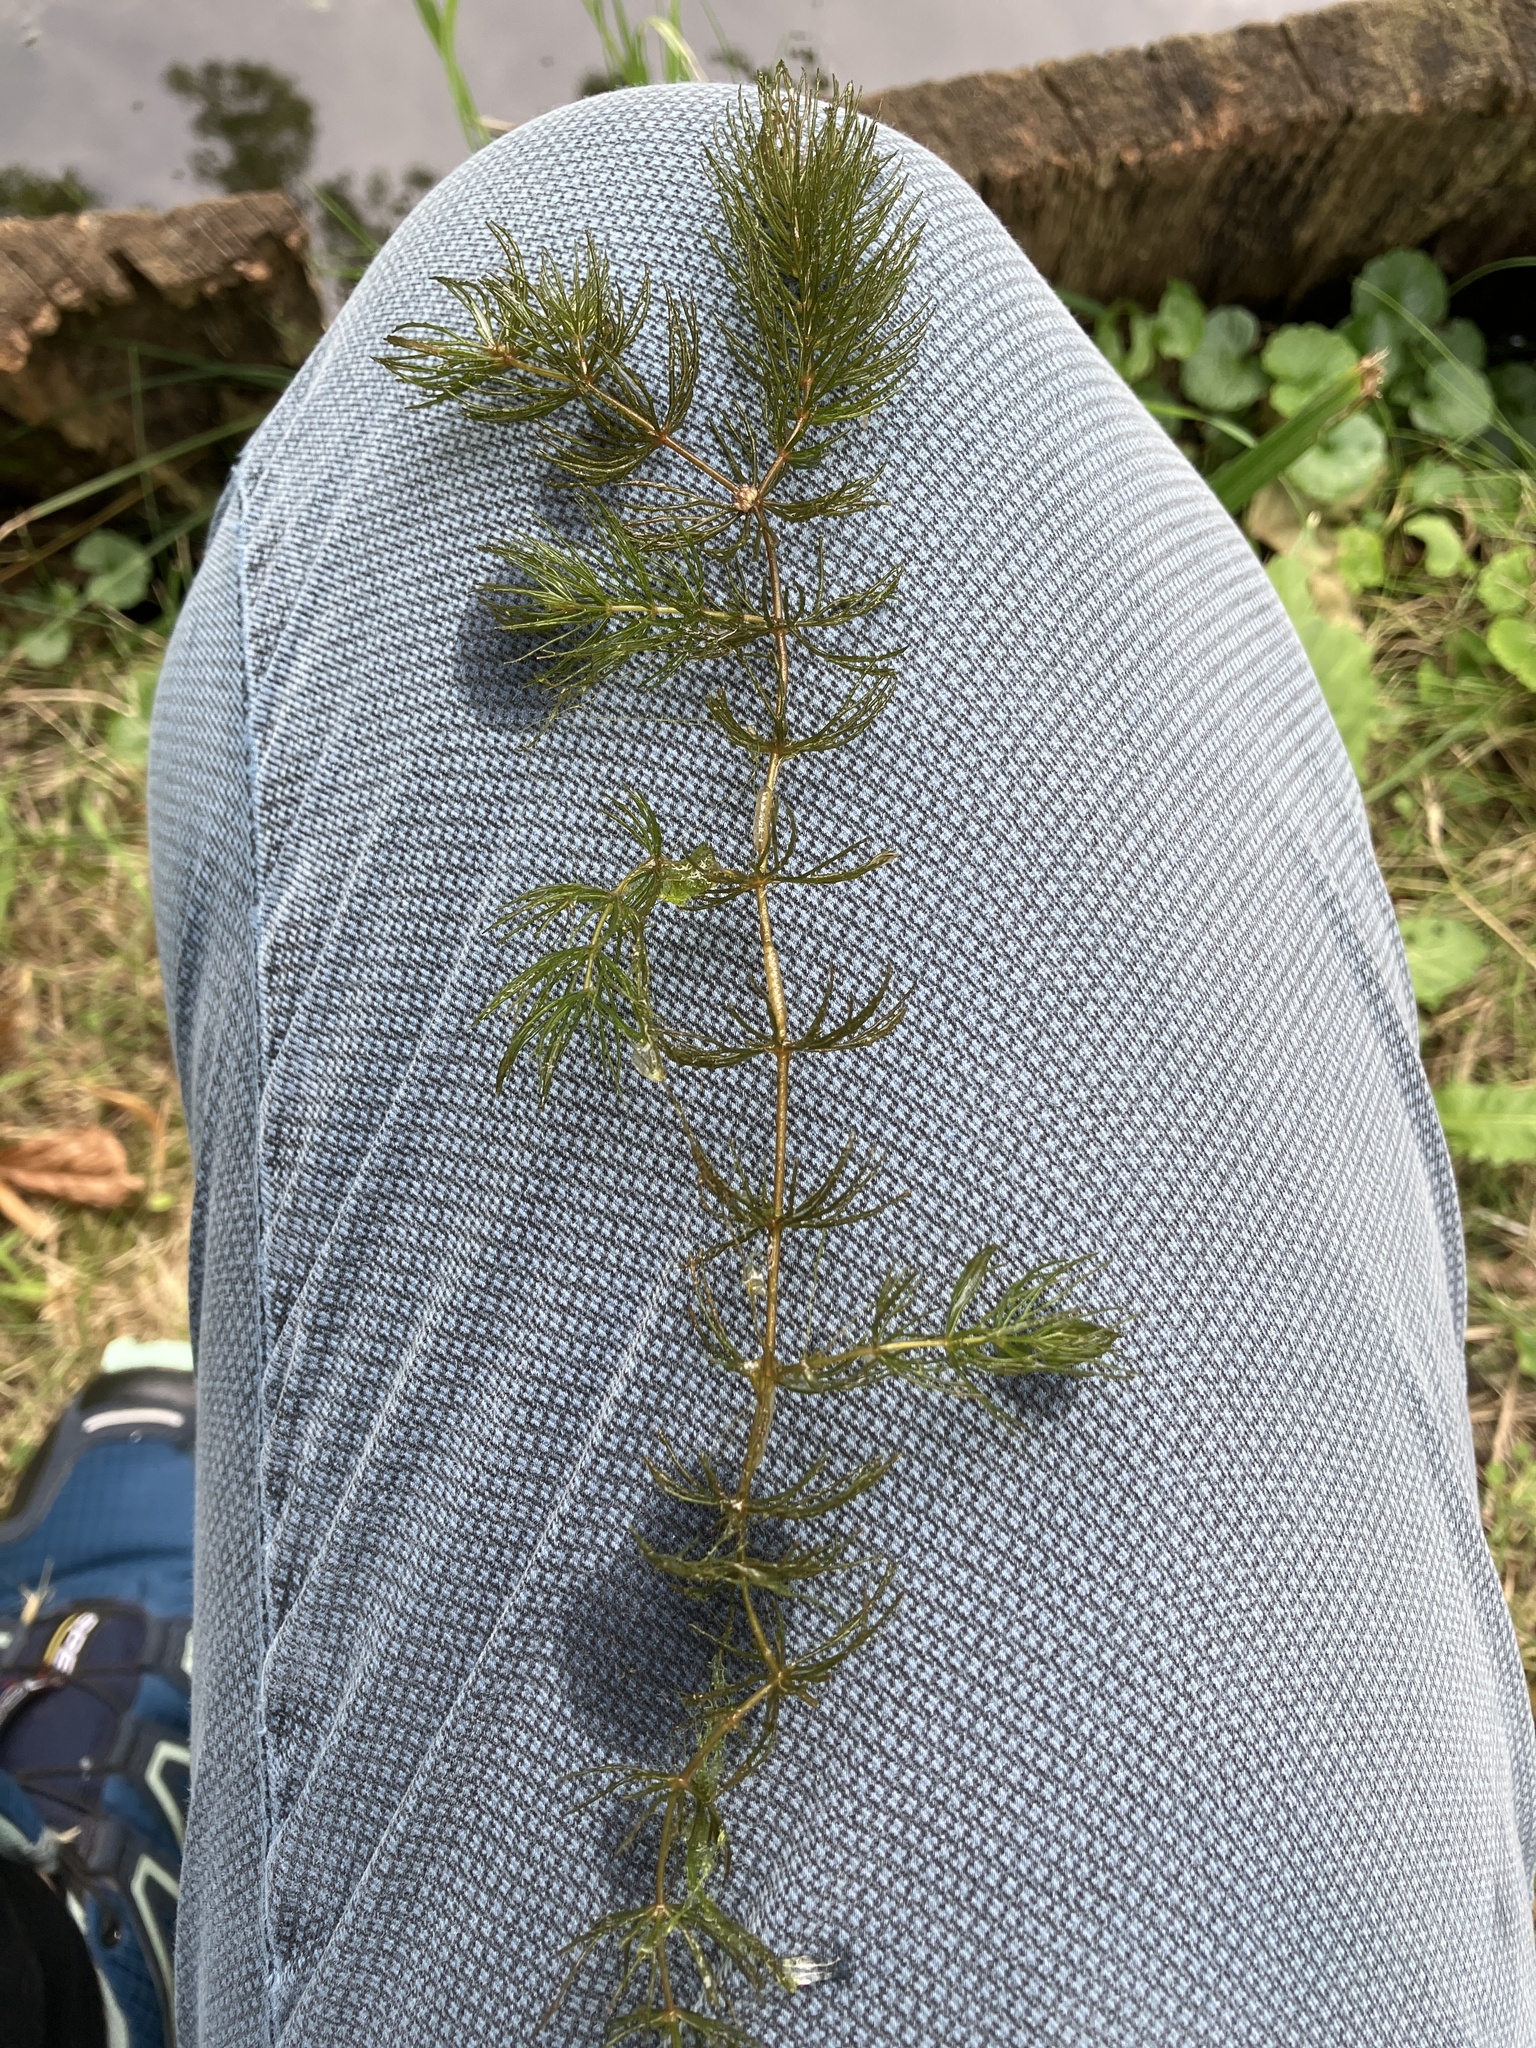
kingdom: Plantae
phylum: Tracheophyta
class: Magnoliopsida
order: Ceratophyllales
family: Ceratophyllaceae
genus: Ceratophyllum
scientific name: Ceratophyllum demersum
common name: Rigid hornwort
